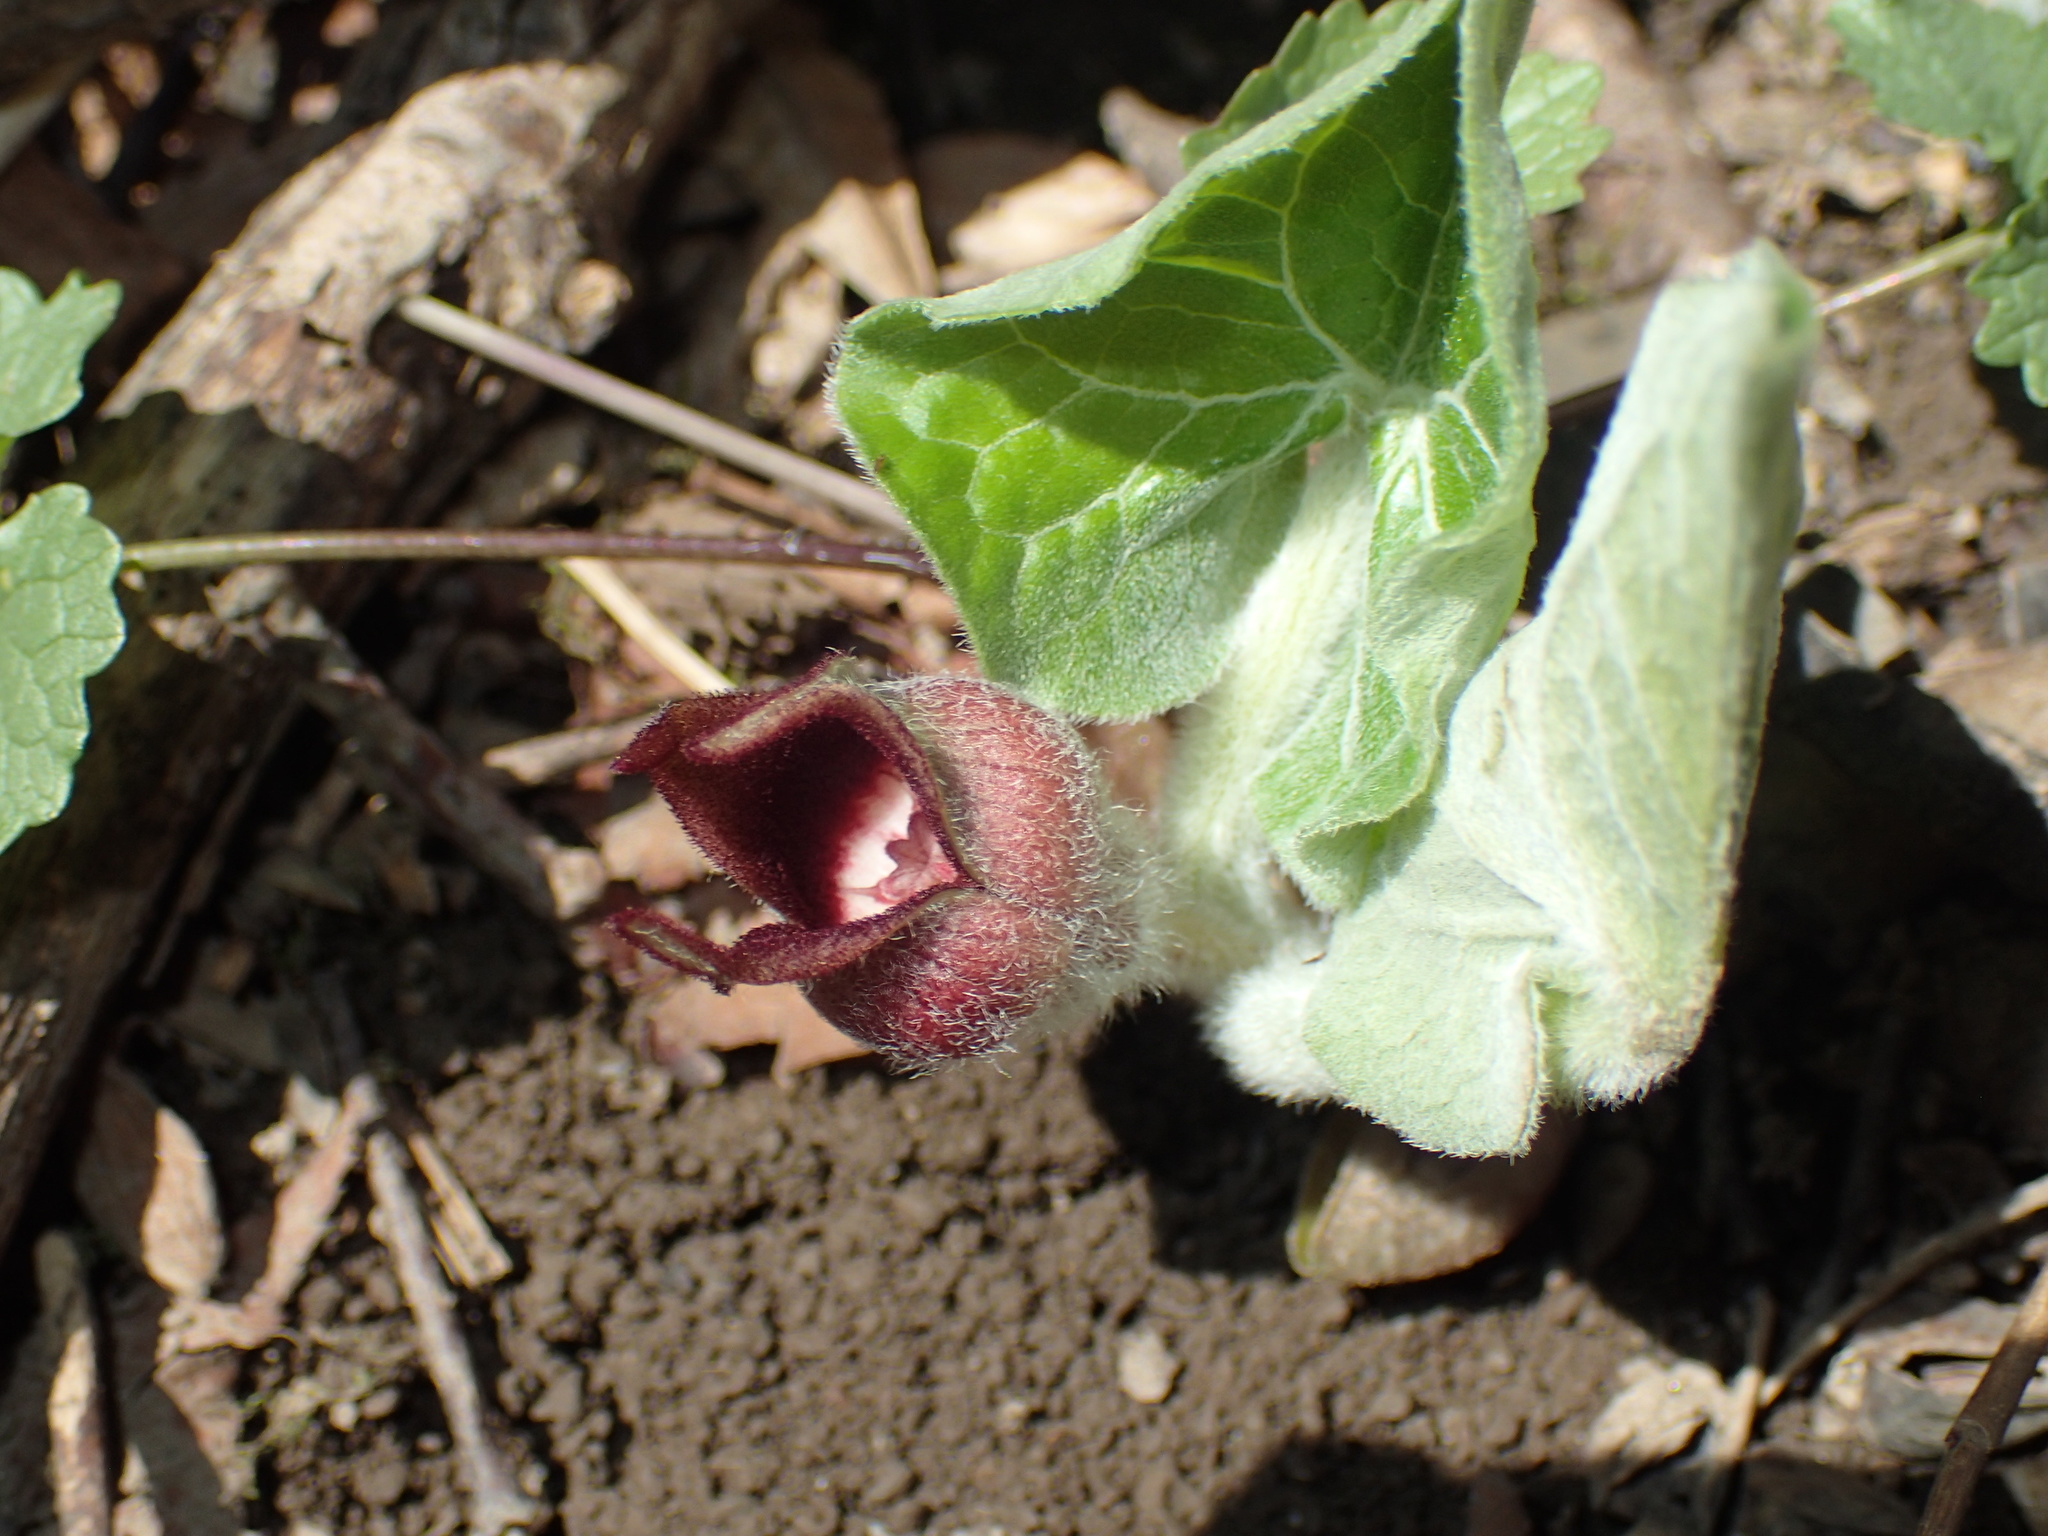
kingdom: Plantae
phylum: Tracheophyta
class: Magnoliopsida
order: Piperales
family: Aristolochiaceae
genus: Asarum
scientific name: Asarum canadense
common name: Wild ginger
